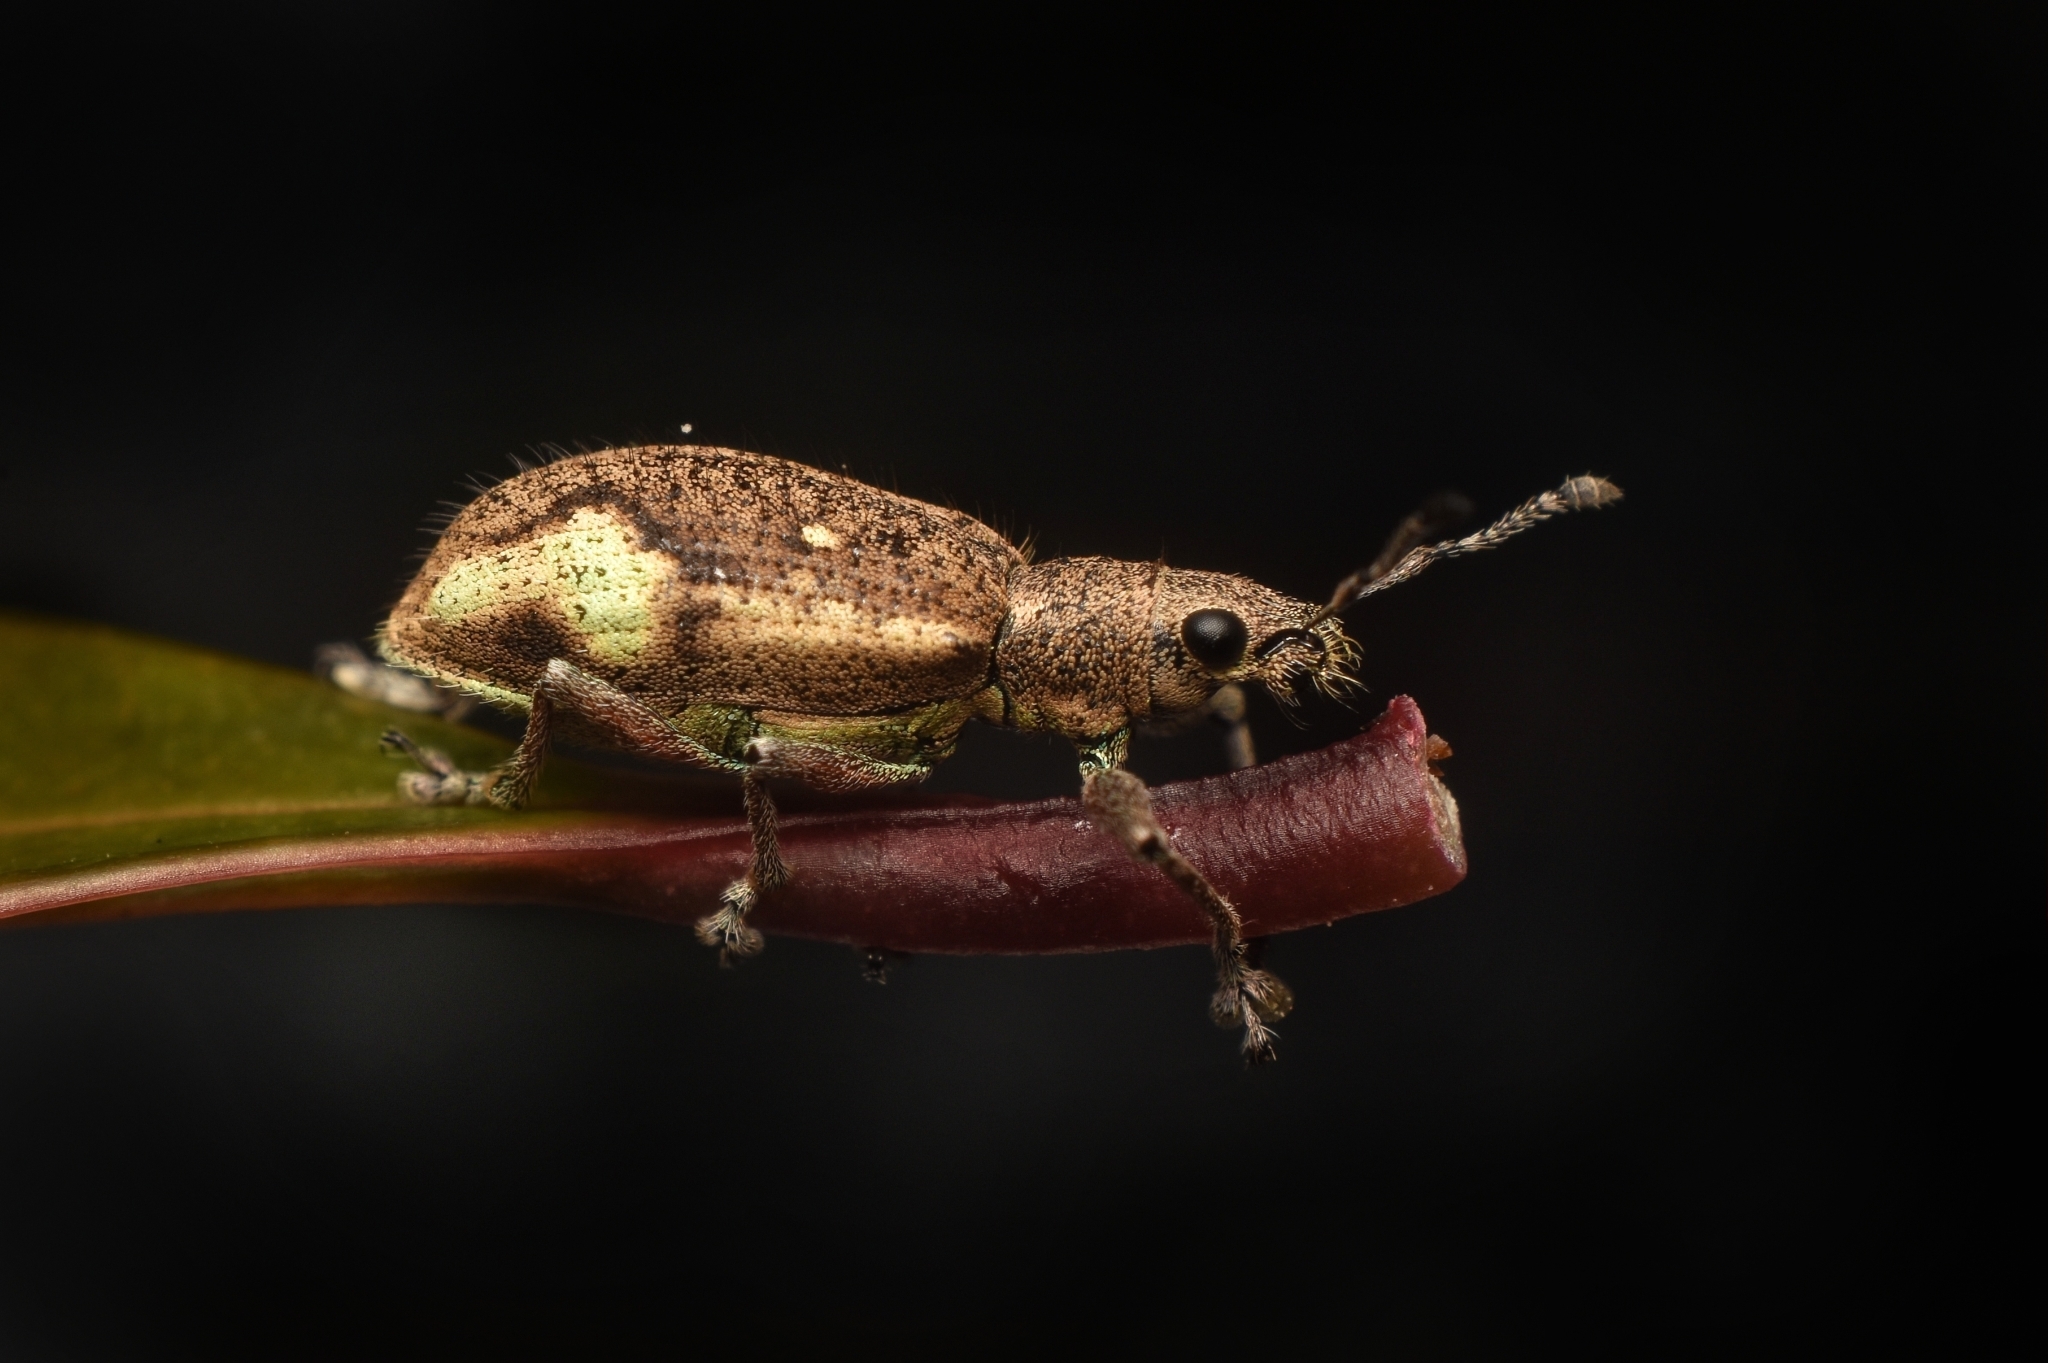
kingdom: Animalia
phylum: Arthropoda
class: Insecta
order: Coleoptera
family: Curculionidae
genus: Mimographus
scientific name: Mimographus
